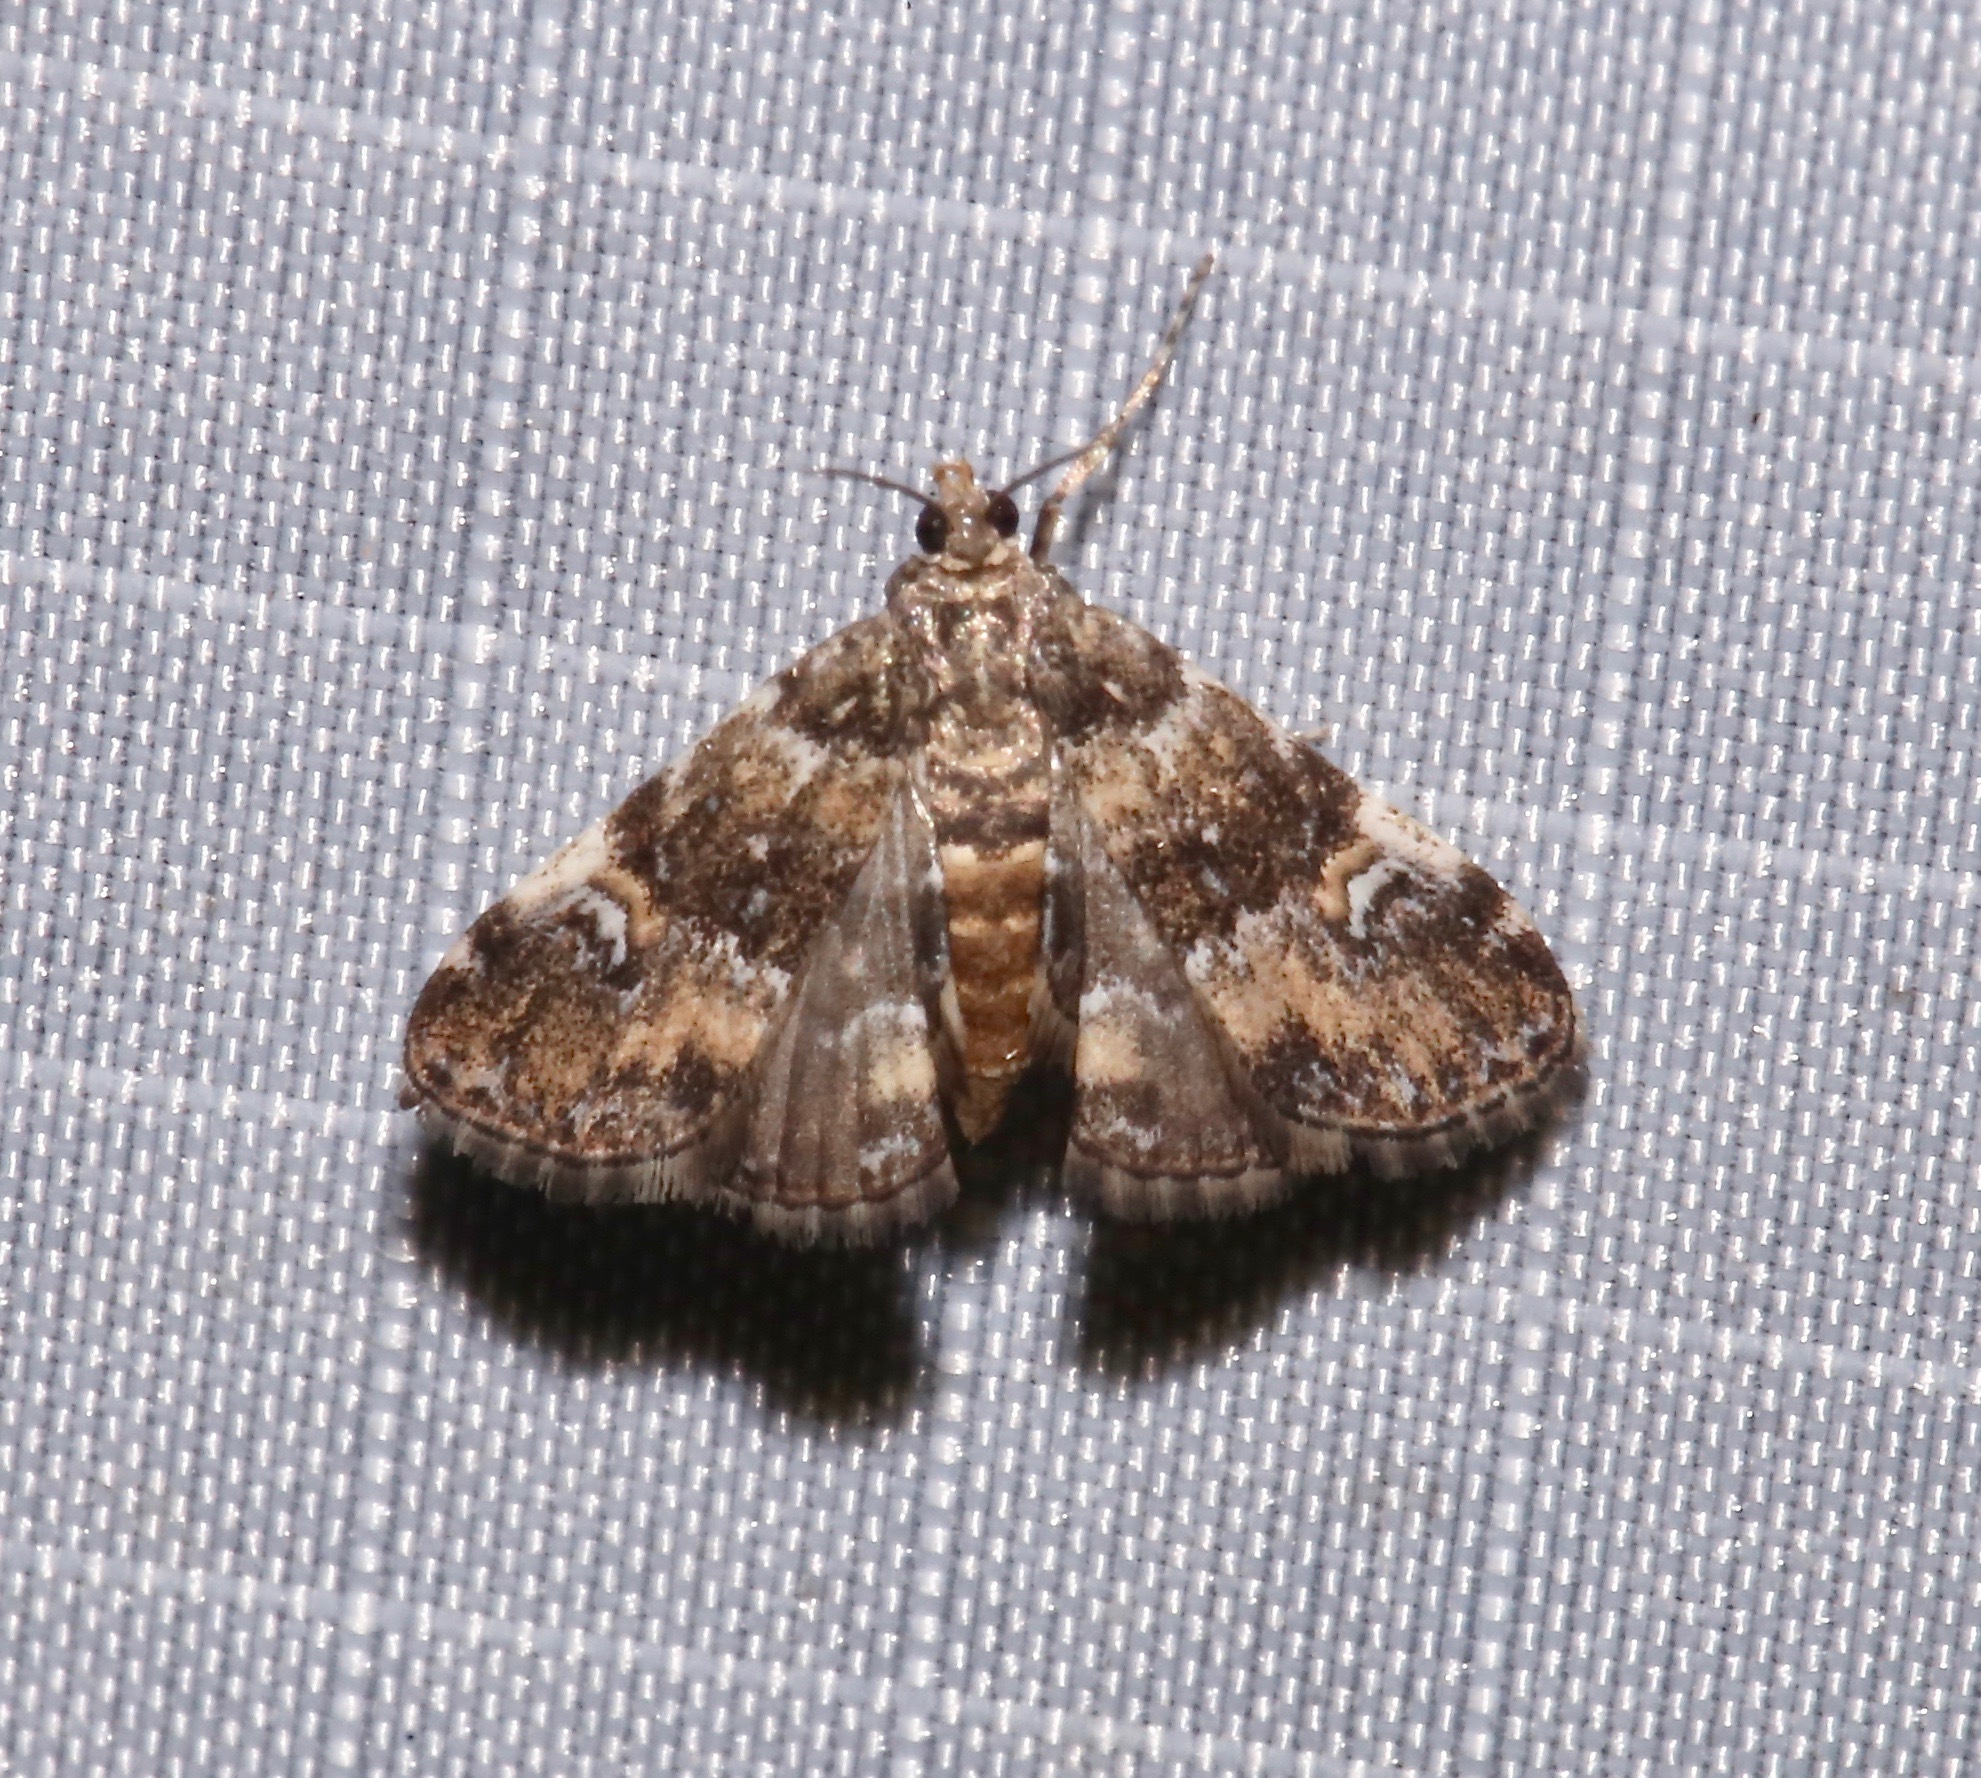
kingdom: Animalia
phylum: Arthropoda
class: Insecta
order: Lepidoptera
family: Crambidae
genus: Elophila
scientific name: Elophila obliteralis
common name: Waterlily leafcutter moth
